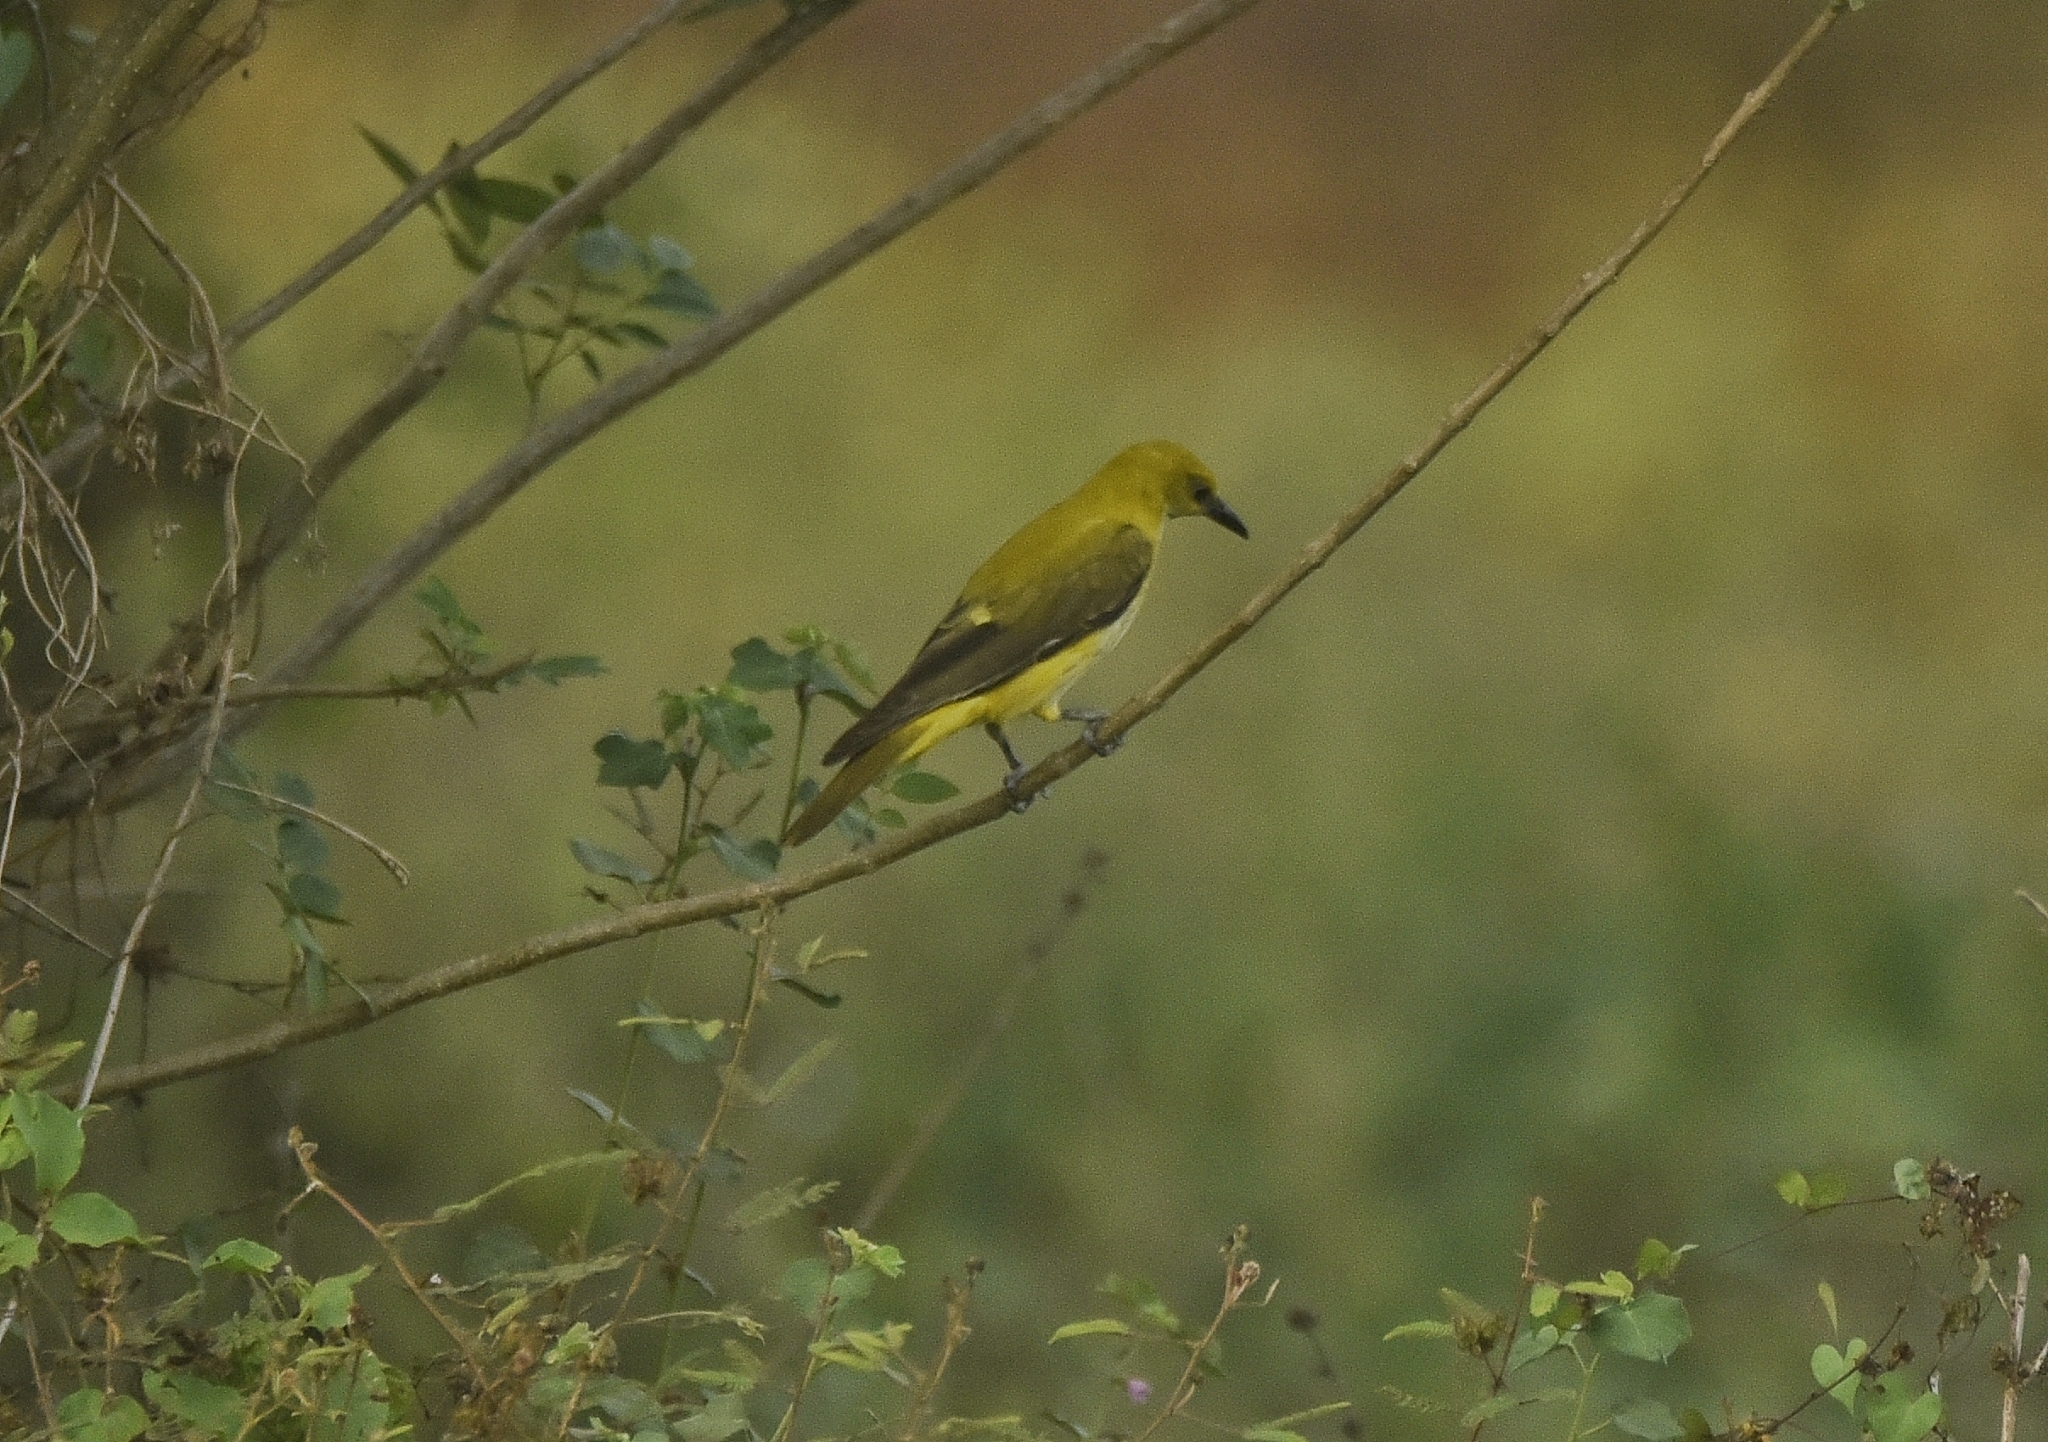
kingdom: Animalia
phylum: Chordata
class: Aves
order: Passeriformes
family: Oriolidae
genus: Oriolus
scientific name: Oriolus kundoo
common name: Indian golden oriole
